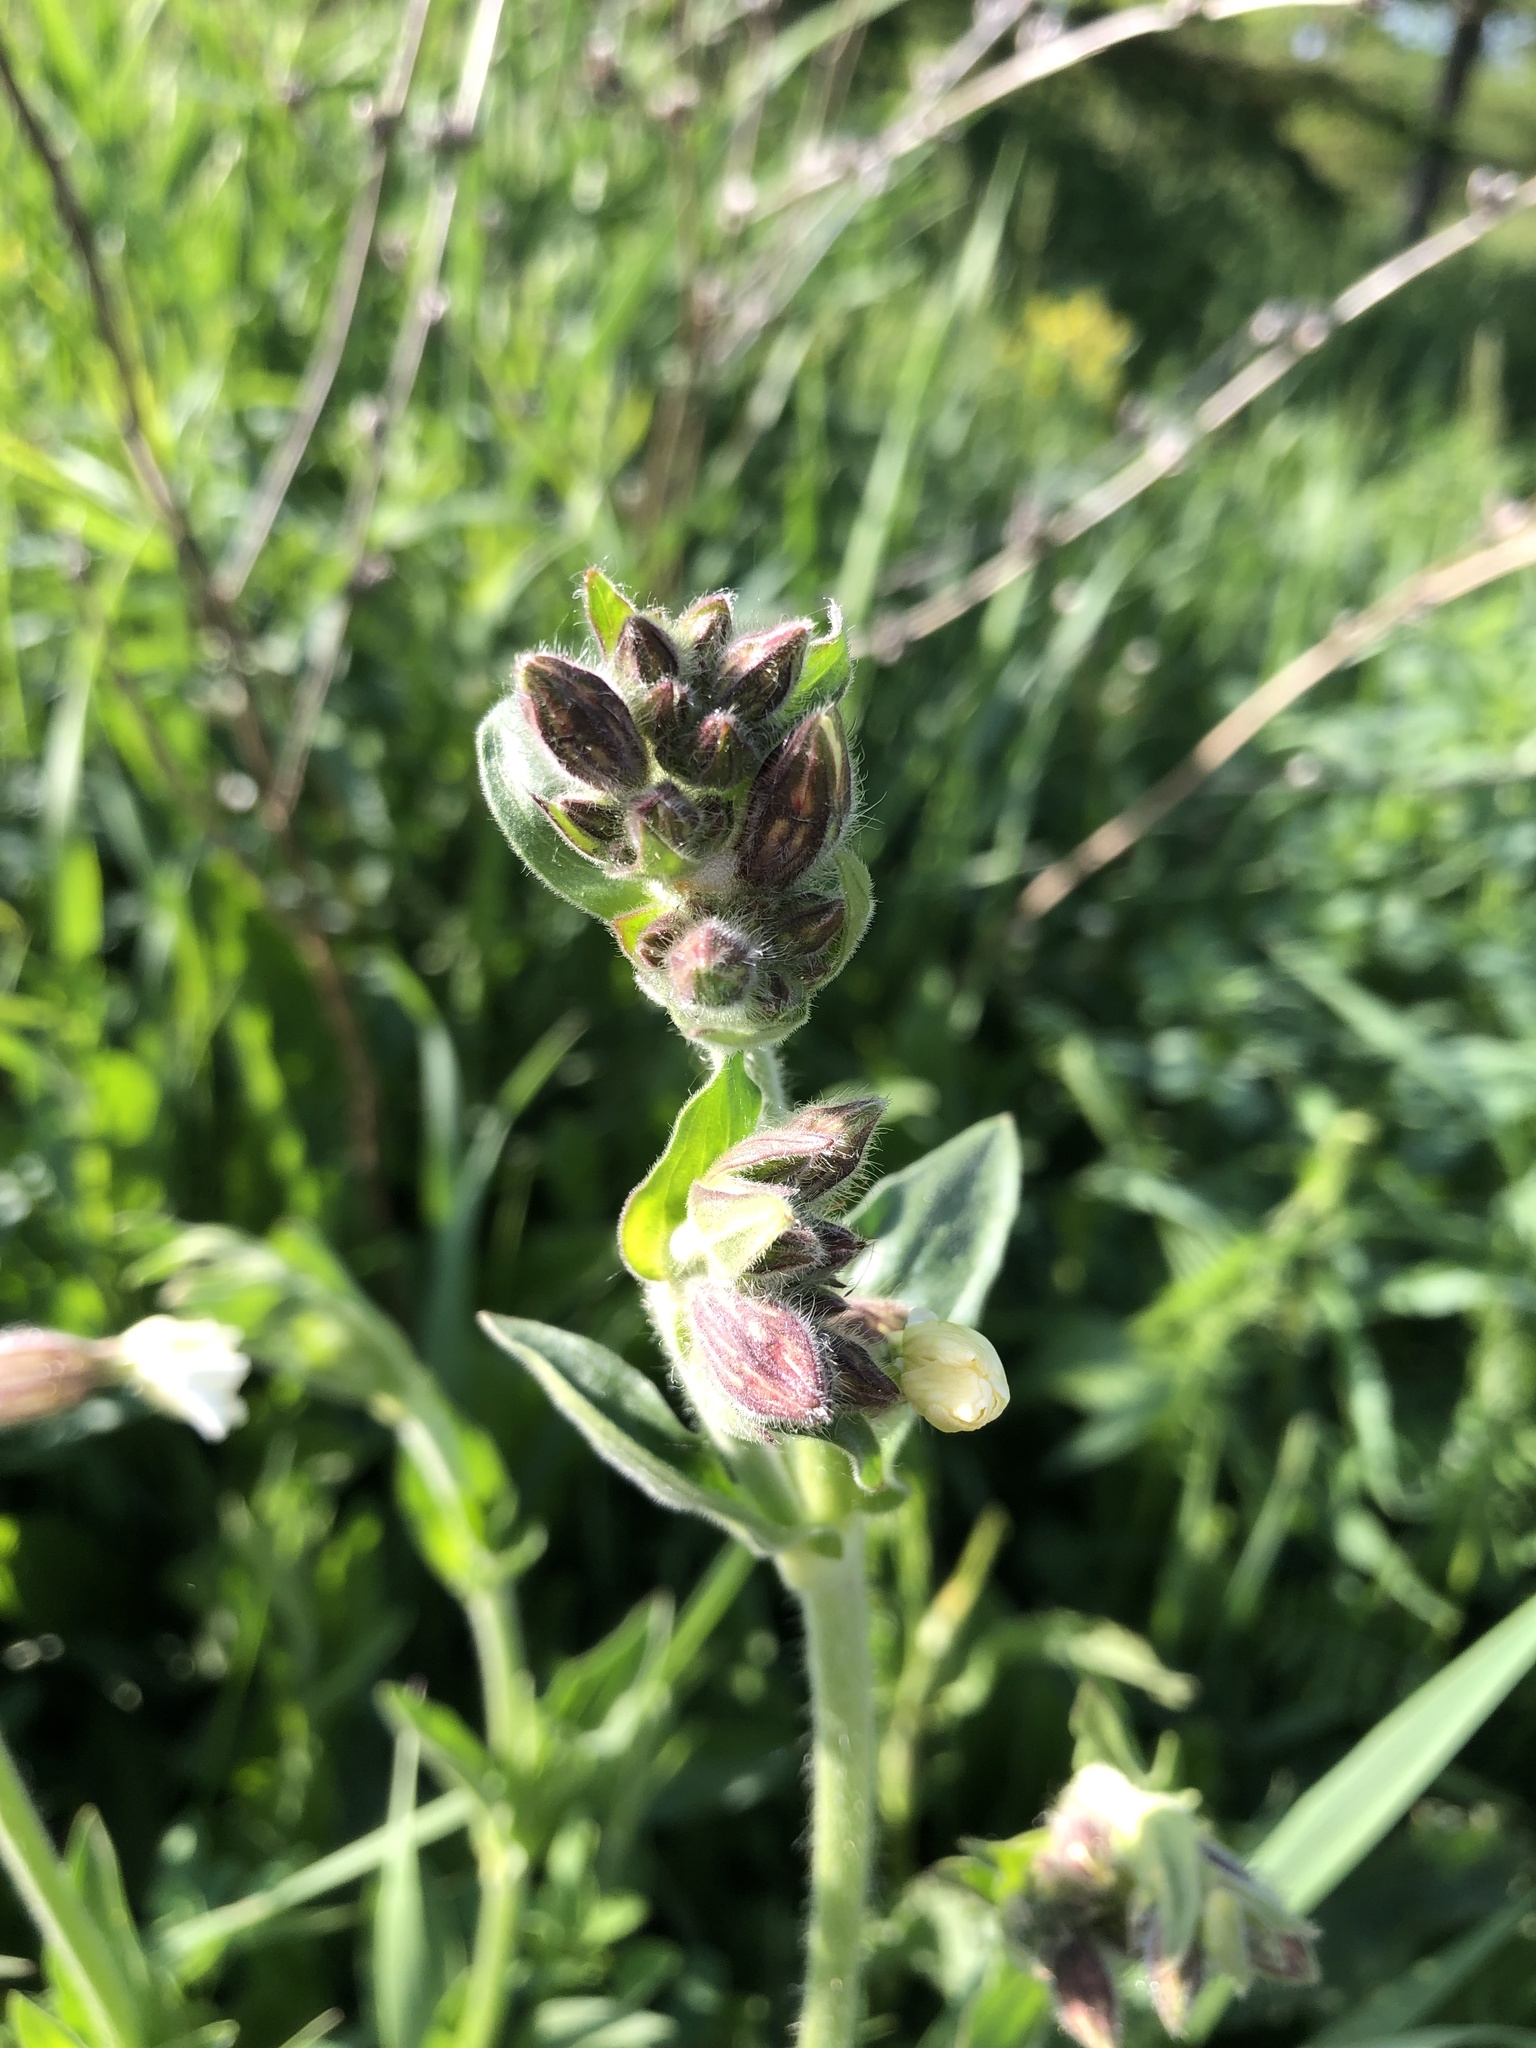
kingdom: Plantae
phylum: Tracheophyta
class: Magnoliopsida
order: Caryophyllales
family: Caryophyllaceae
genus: Silene
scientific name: Silene latifolia
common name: White campion
